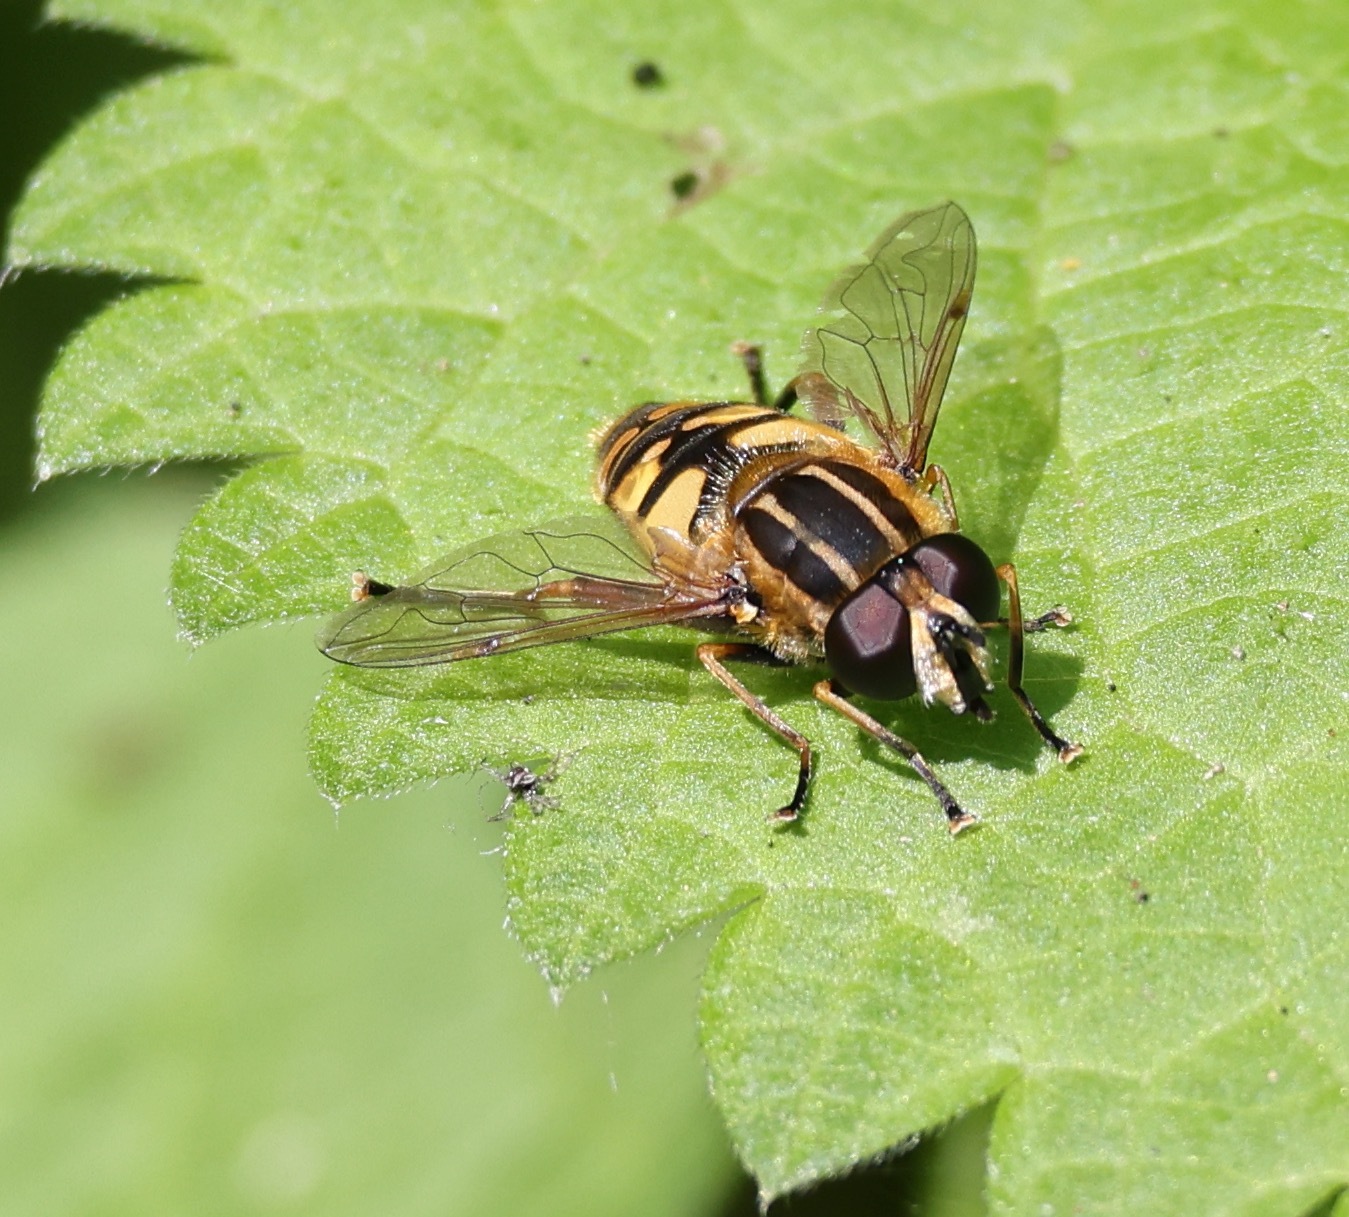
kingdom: Animalia
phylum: Arthropoda
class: Insecta
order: Diptera
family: Syrphidae
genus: Helophilus
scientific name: Helophilus pendulus
